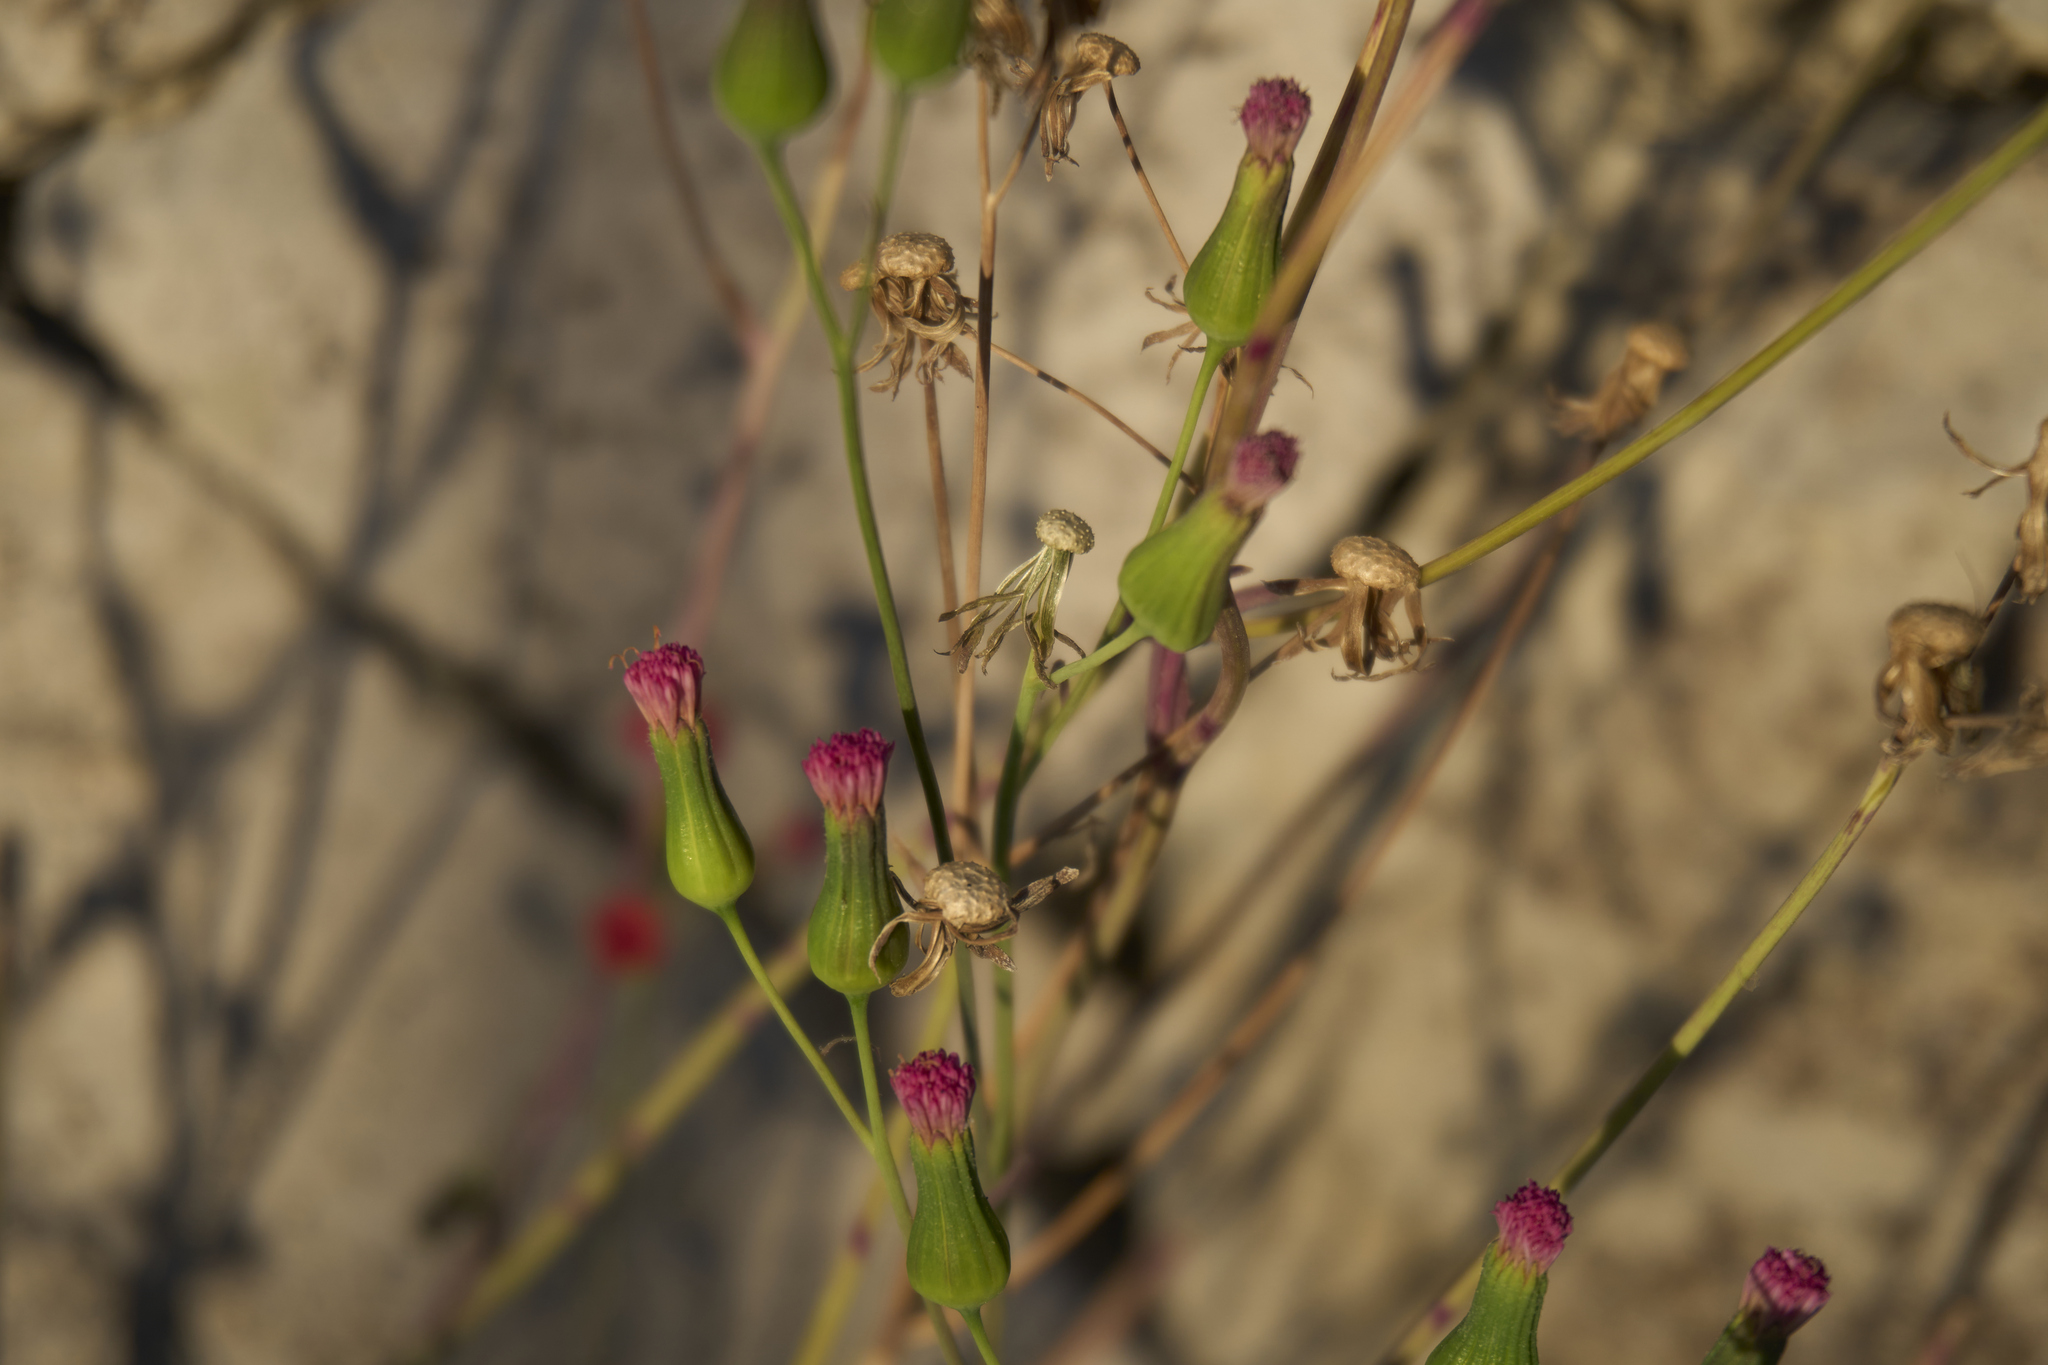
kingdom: Plantae
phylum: Tracheophyta
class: Magnoliopsida
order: Asterales
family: Asteraceae
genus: Emilia
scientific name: Emilia fosbergii
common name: Florida tasselflower
